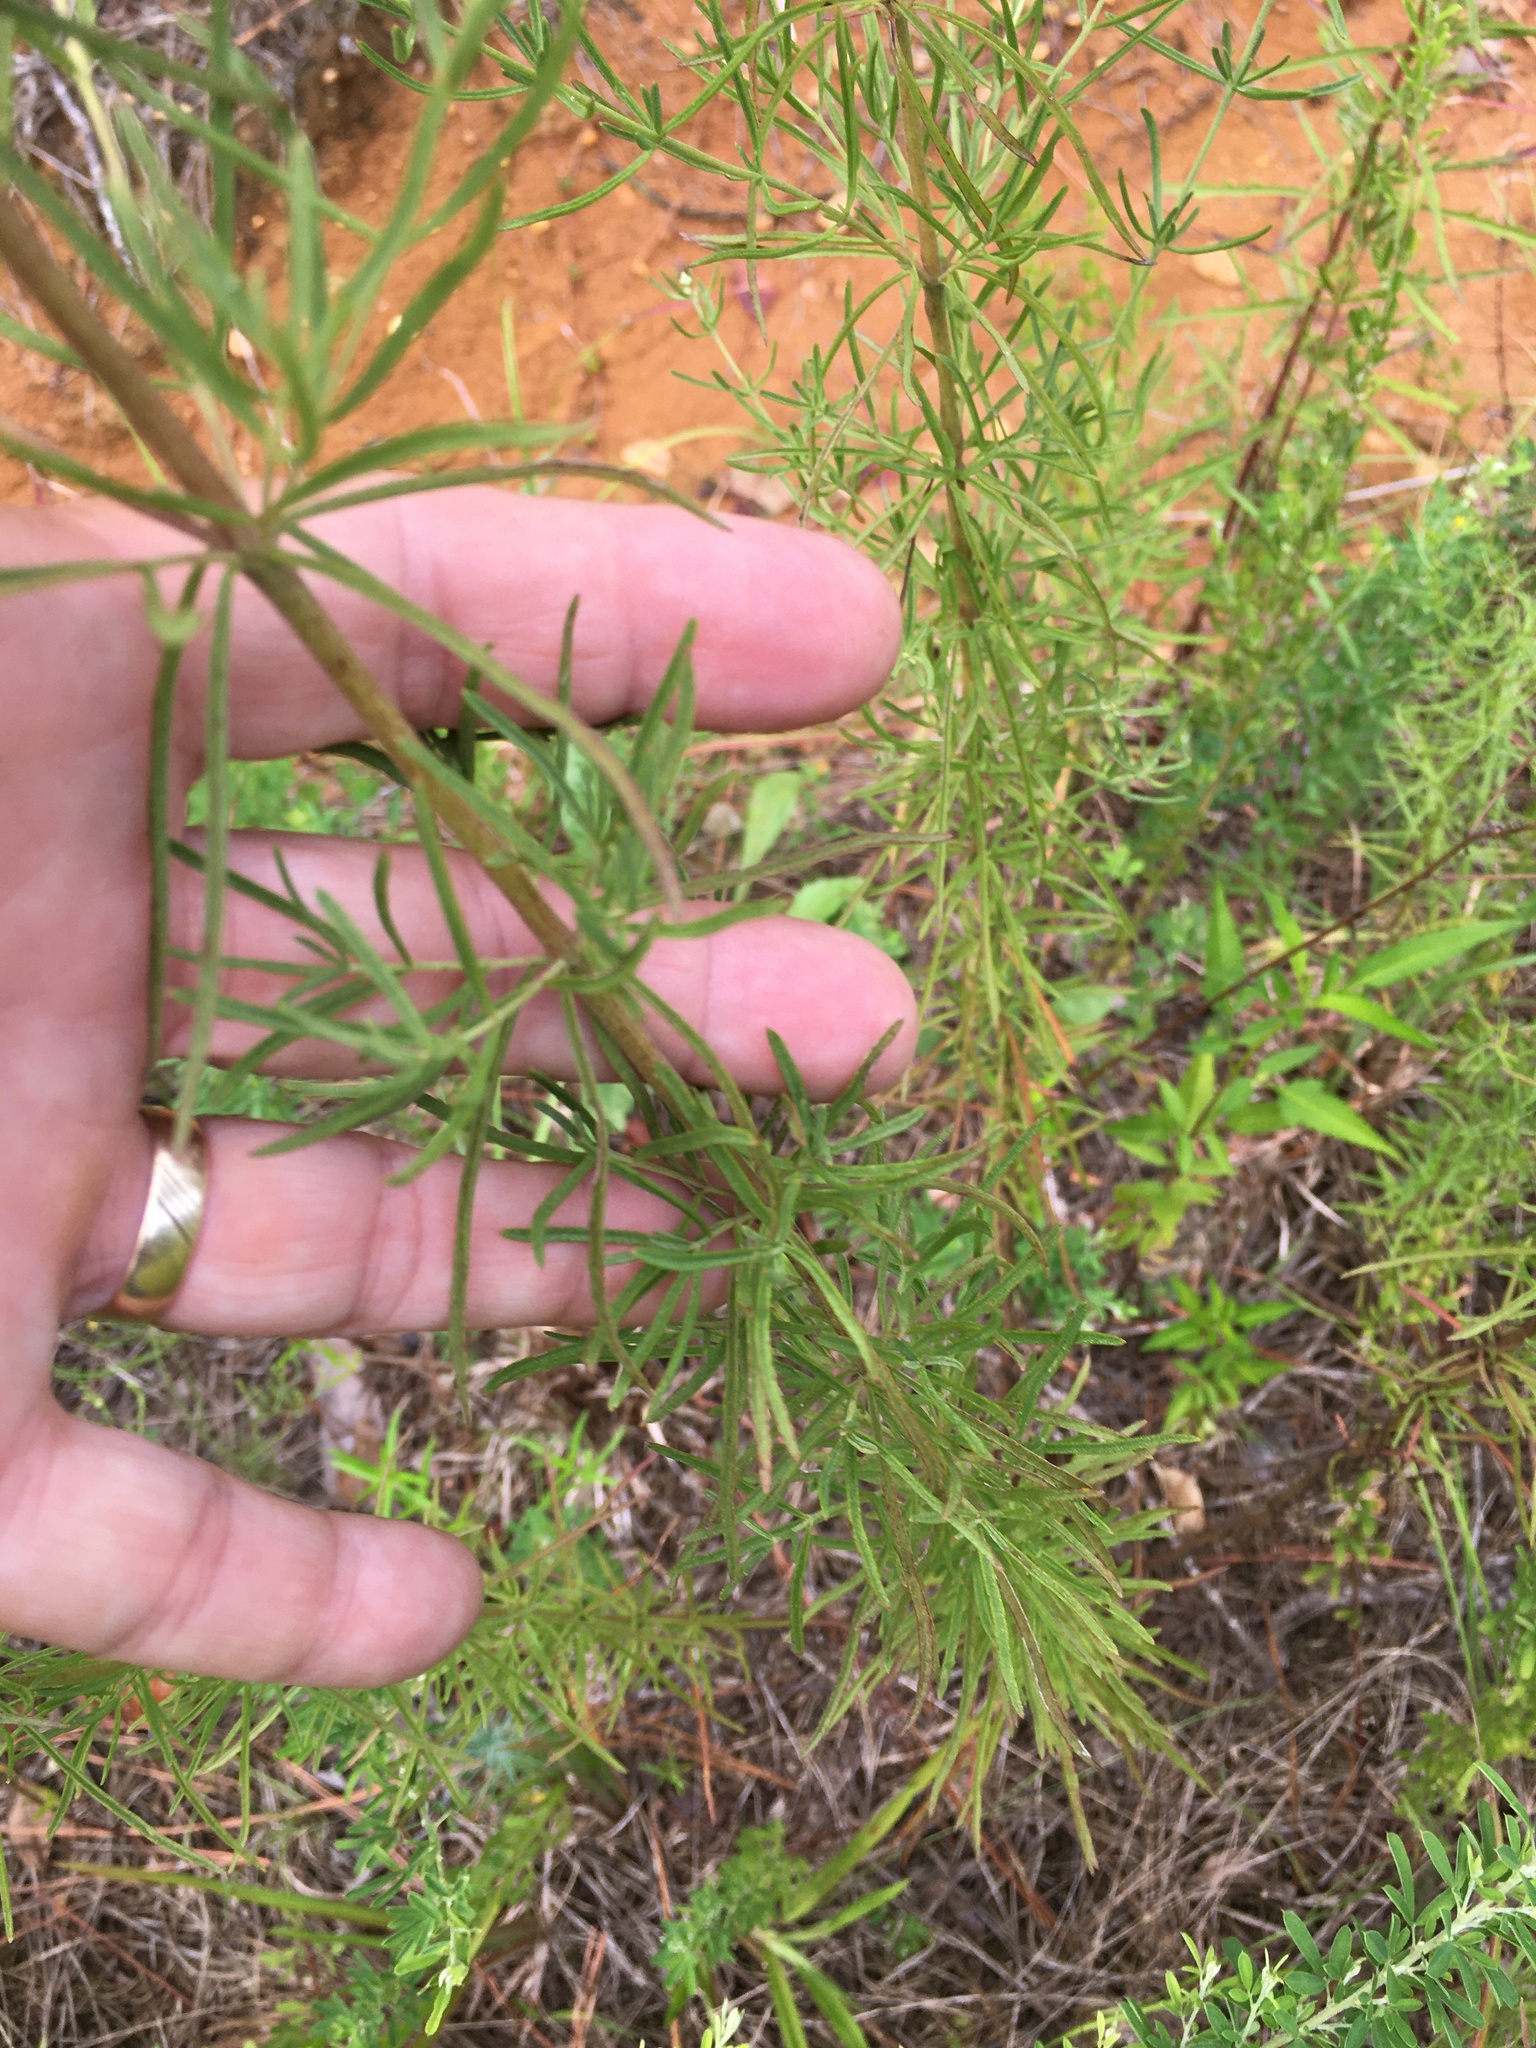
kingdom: Plantae
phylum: Tracheophyta
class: Magnoliopsida
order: Asterales
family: Asteraceae
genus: Eupatorium
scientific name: Eupatorium hyssopifolium
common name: Hyssop-leaf thoroughwort
